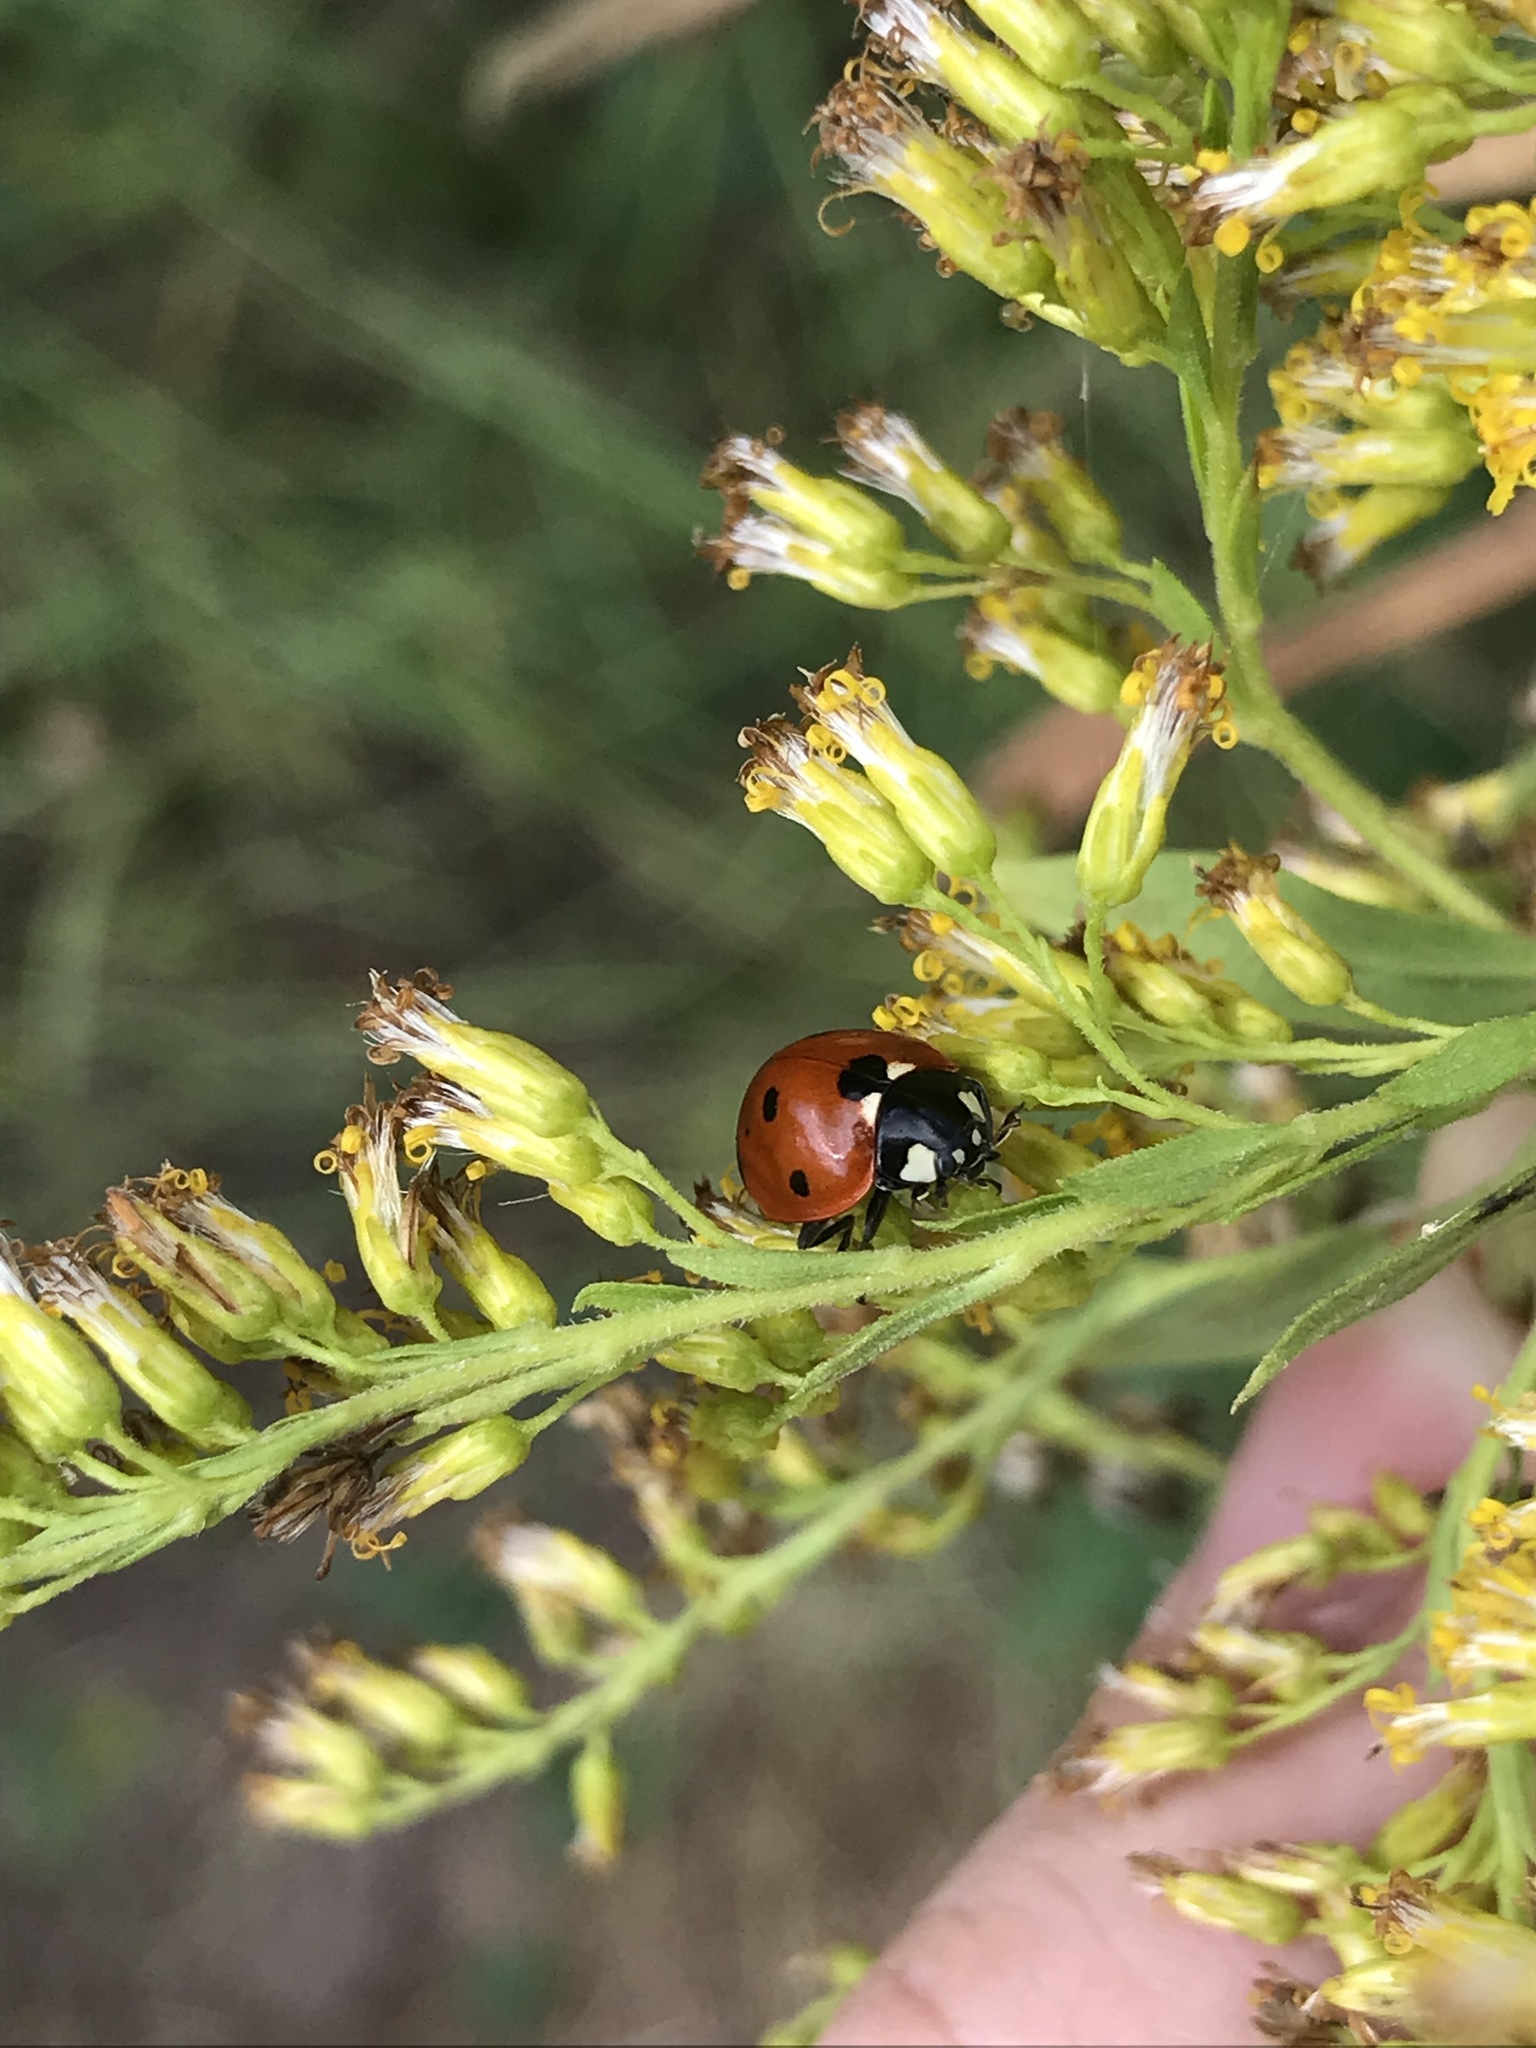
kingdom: Animalia
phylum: Arthropoda
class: Insecta
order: Coleoptera
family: Coccinellidae
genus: Coccinella
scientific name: Coccinella septempunctata
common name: Sevenspotted lady beetle
